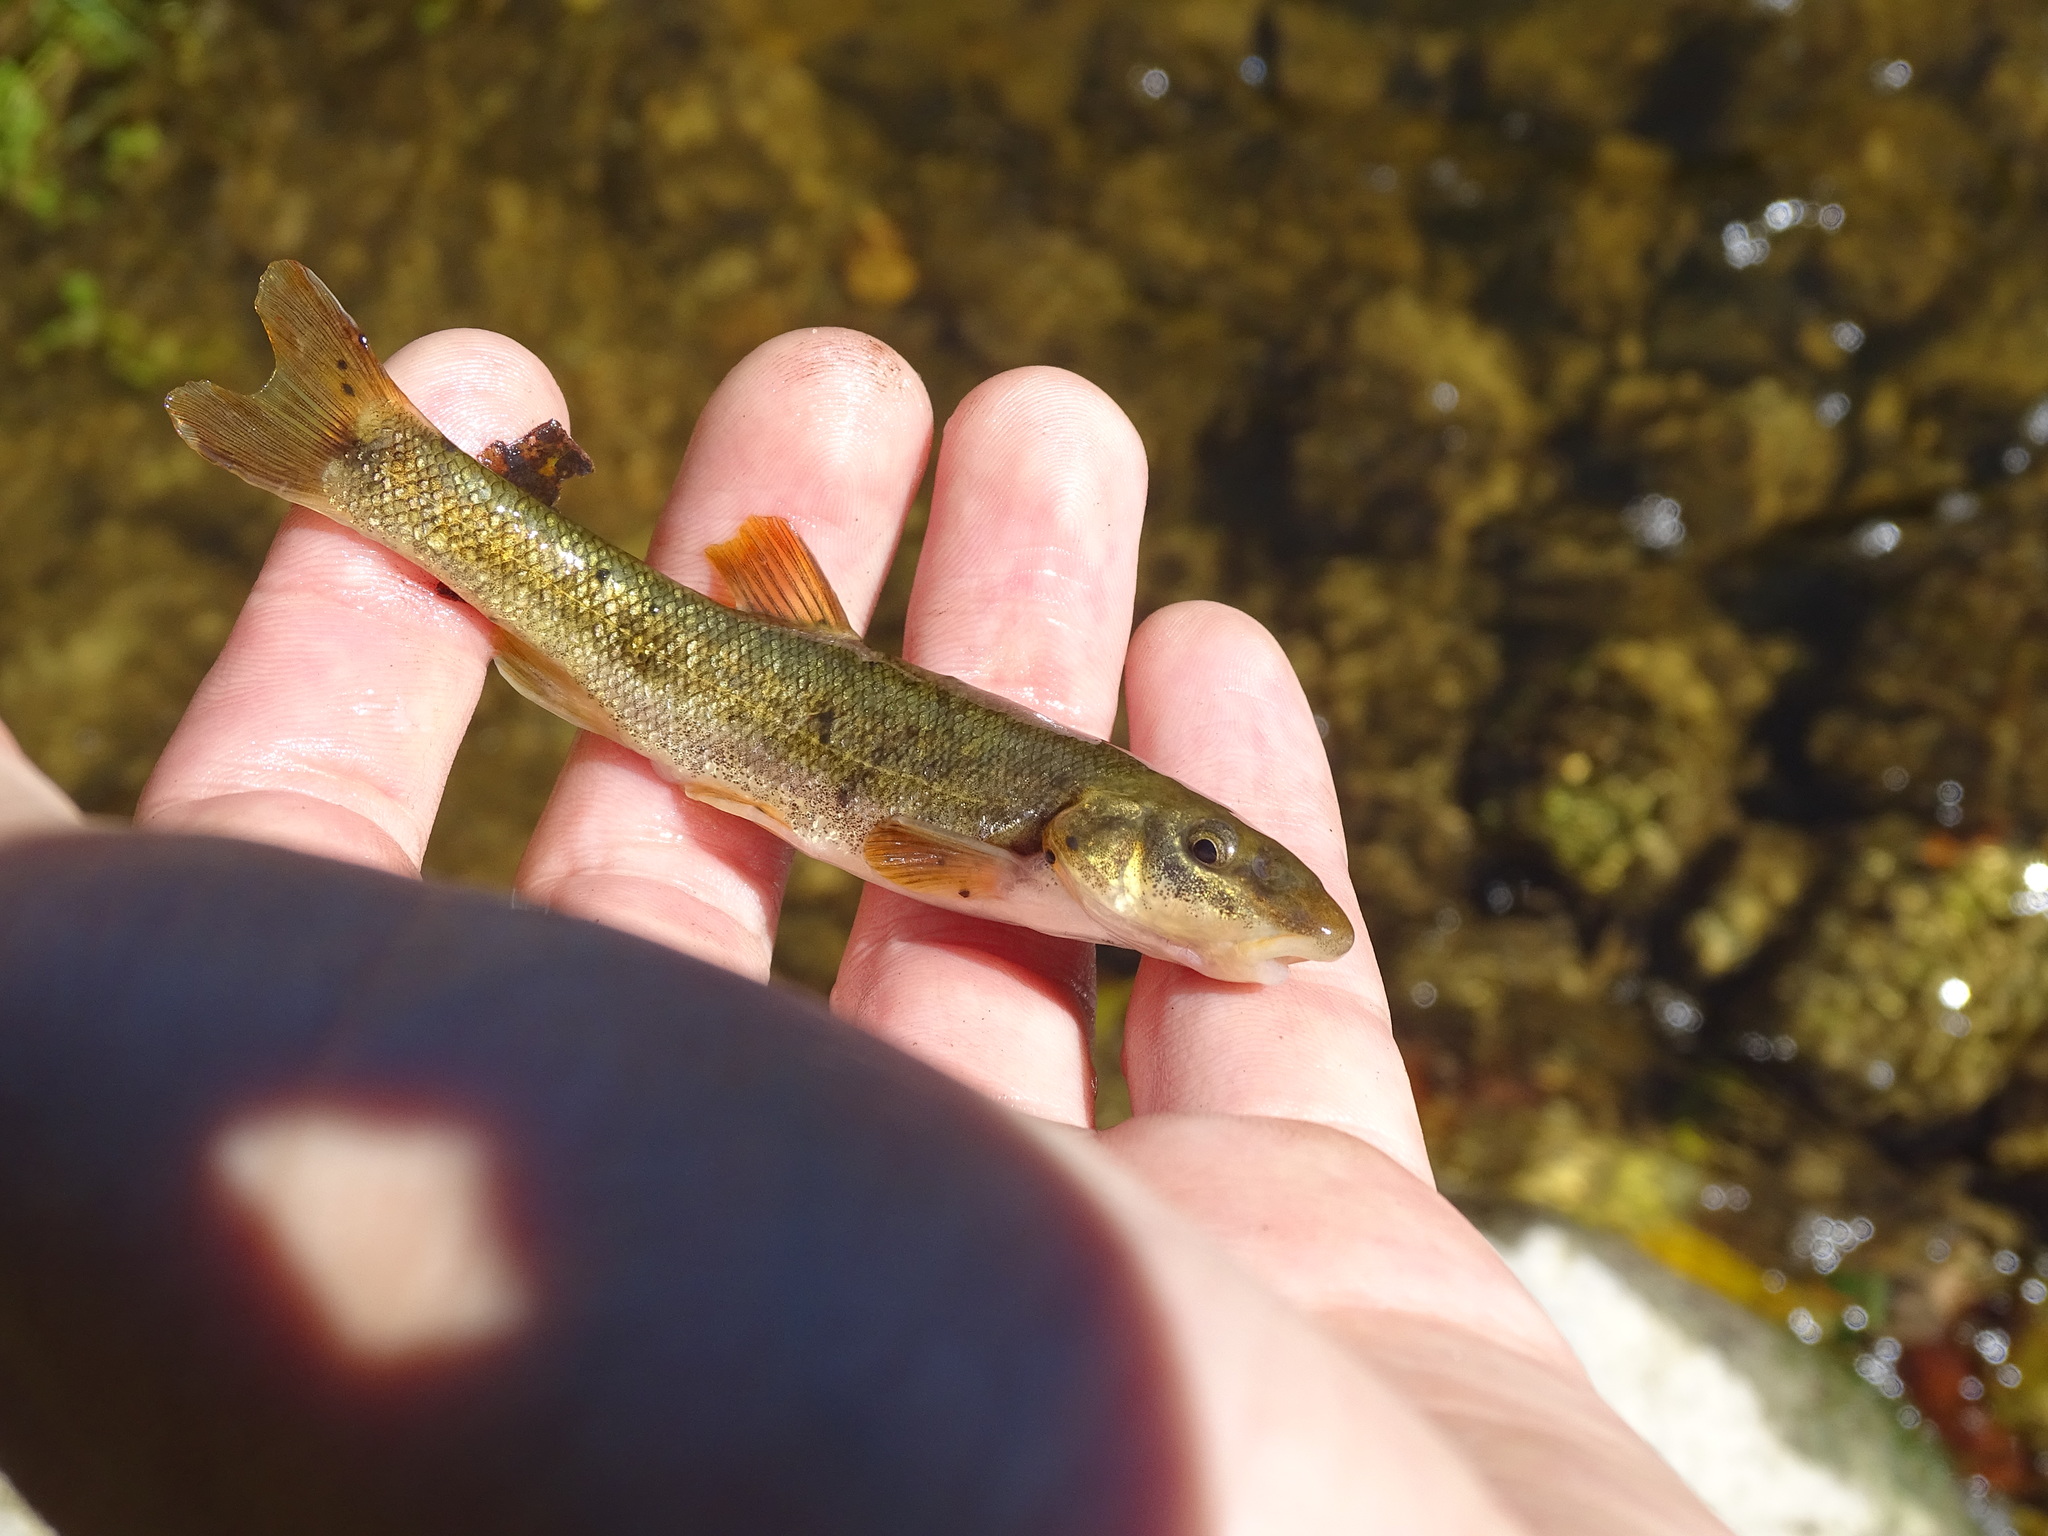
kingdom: Animalia
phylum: Chordata
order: Cypriniformes
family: Cyprinidae
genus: Rhinichthys
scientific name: Rhinichthys cataractae
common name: Longnose dace
